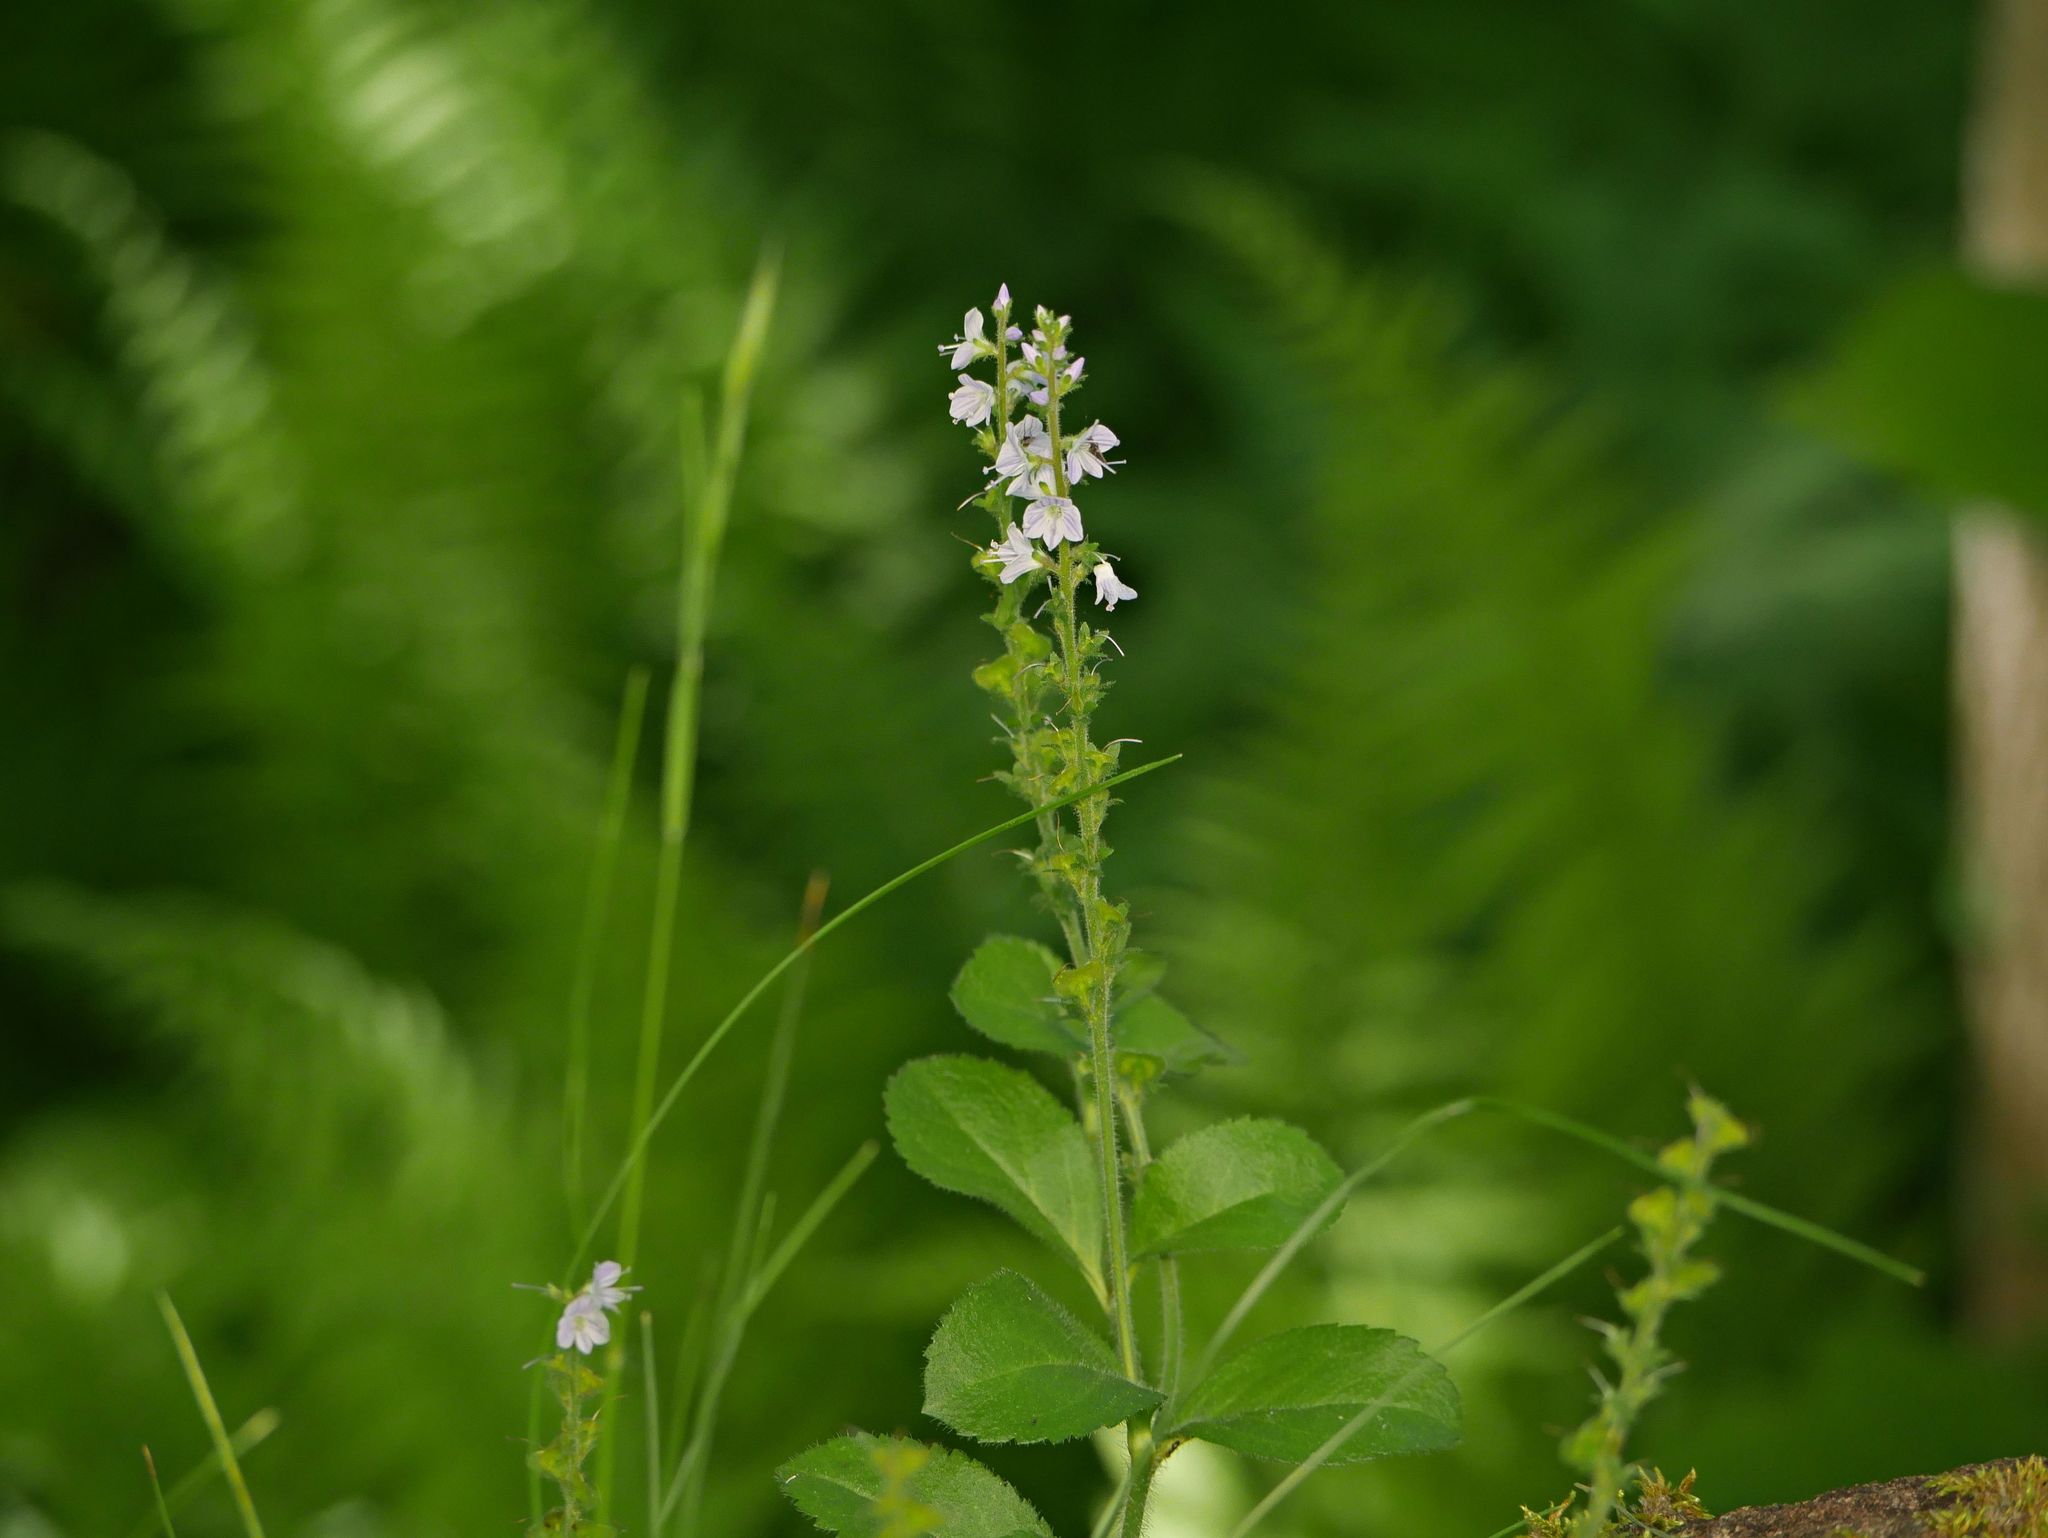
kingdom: Plantae
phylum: Tracheophyta
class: Magnoliopsida
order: Lamiales
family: Plantaginaceae
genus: Veronica
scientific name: Veronica officinalis
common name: Common speedwell
